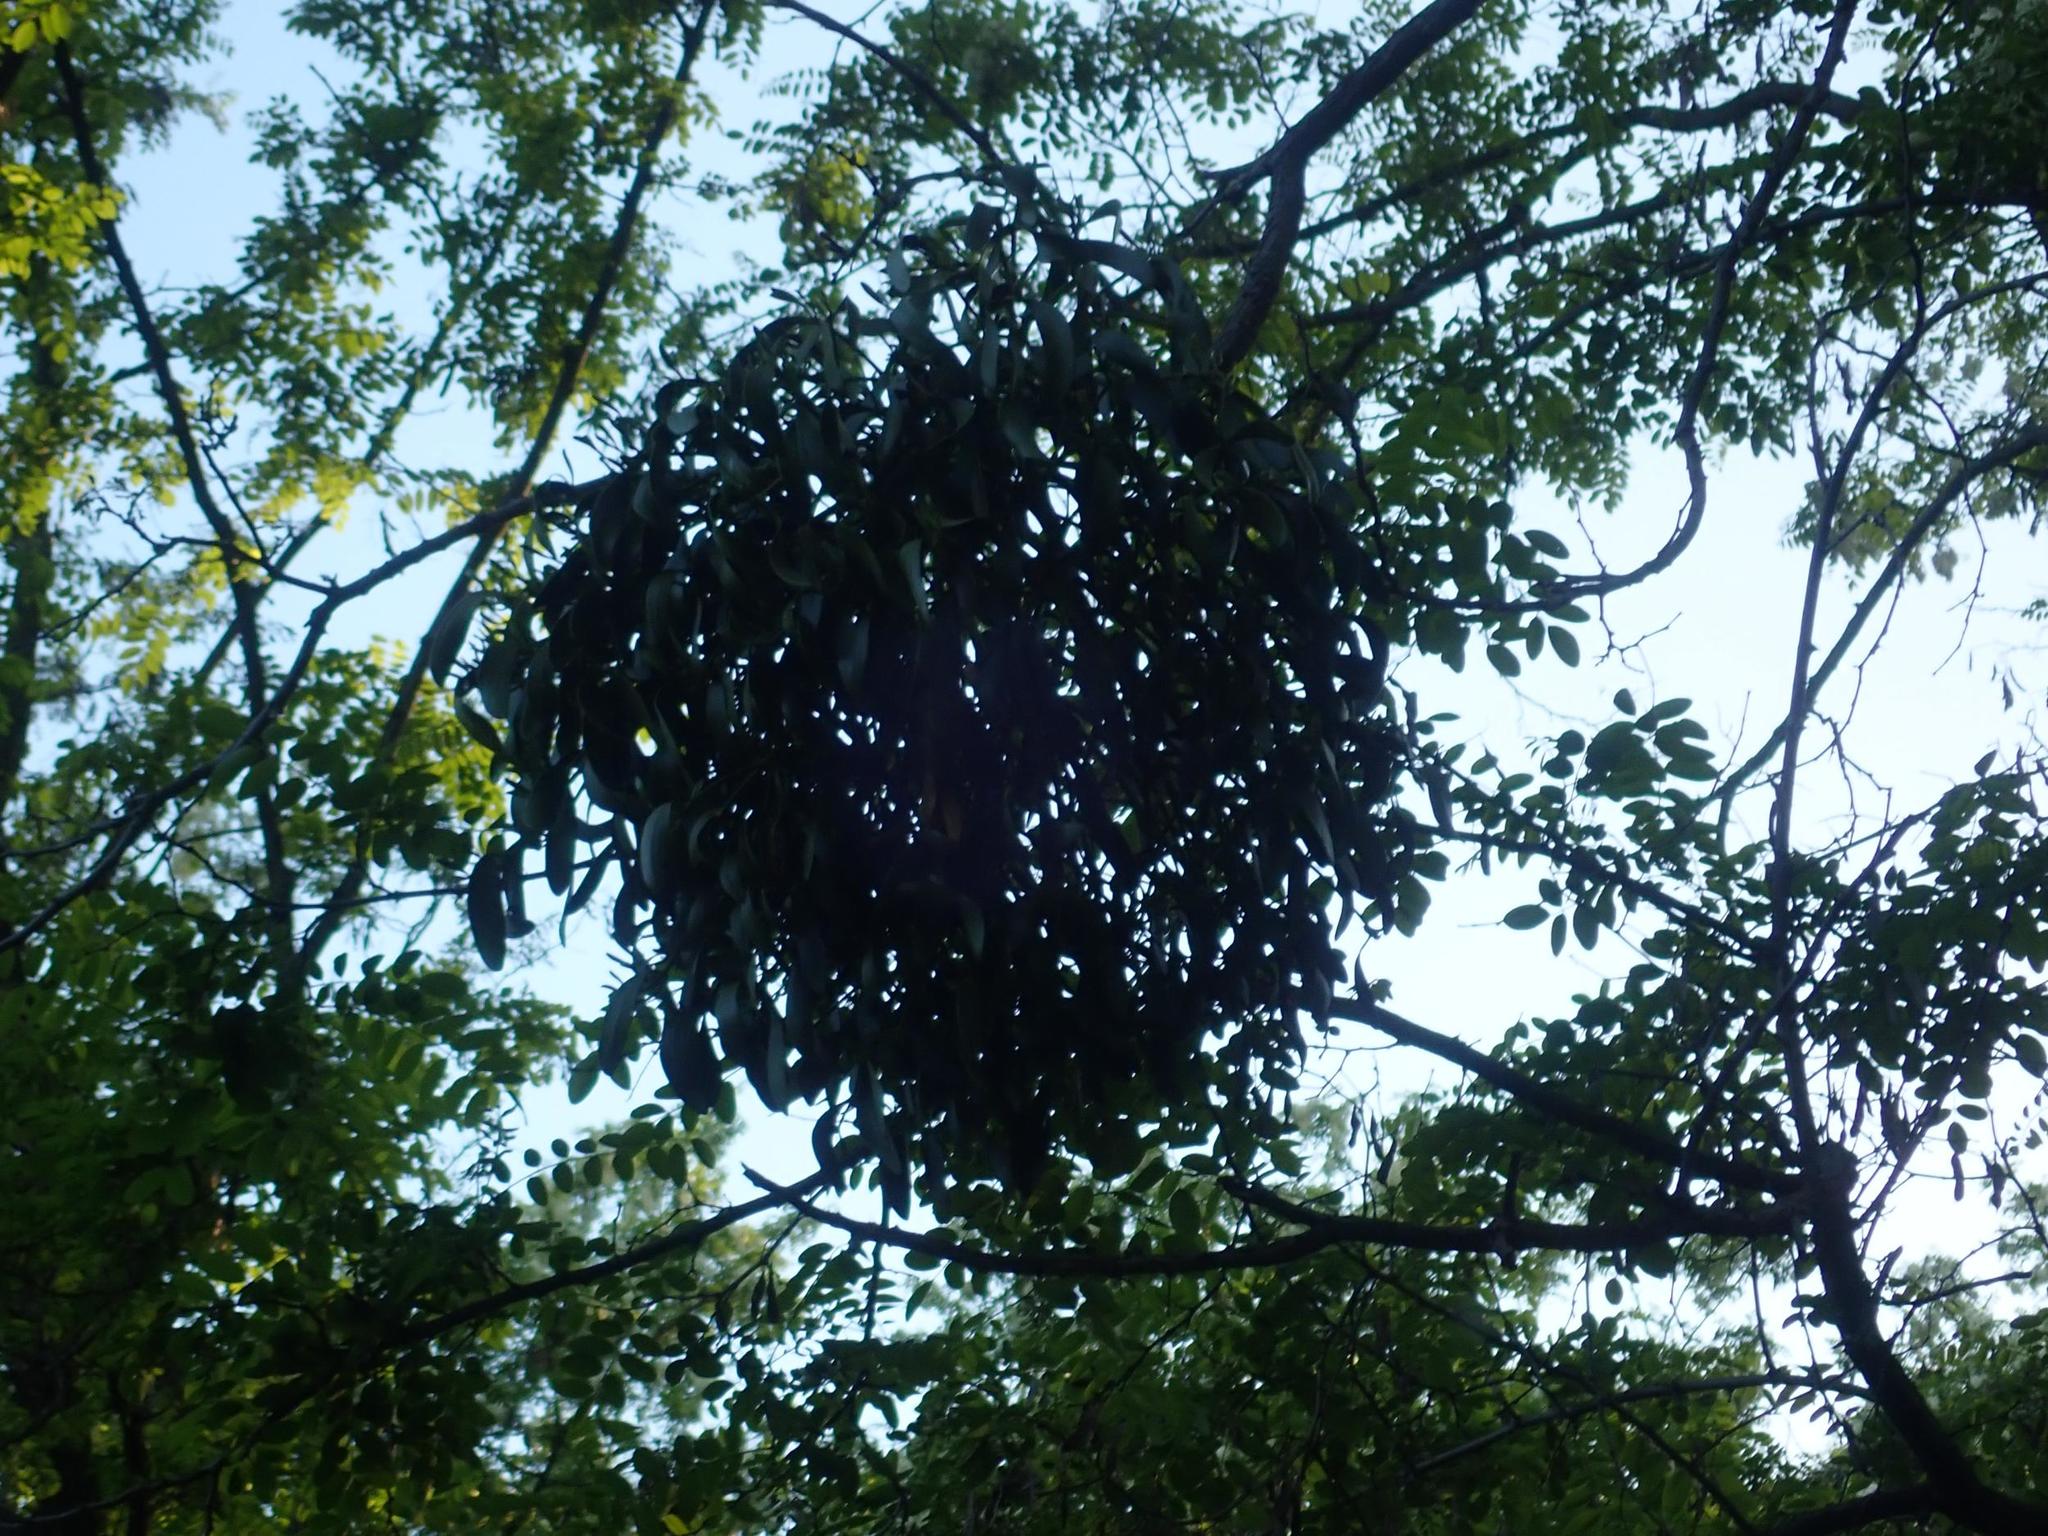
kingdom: Plantae
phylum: Tracheophyta
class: Magnoliopsida
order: Santalales
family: Viscaceae
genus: Viscum
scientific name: Viscum album
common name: Mistletoe
